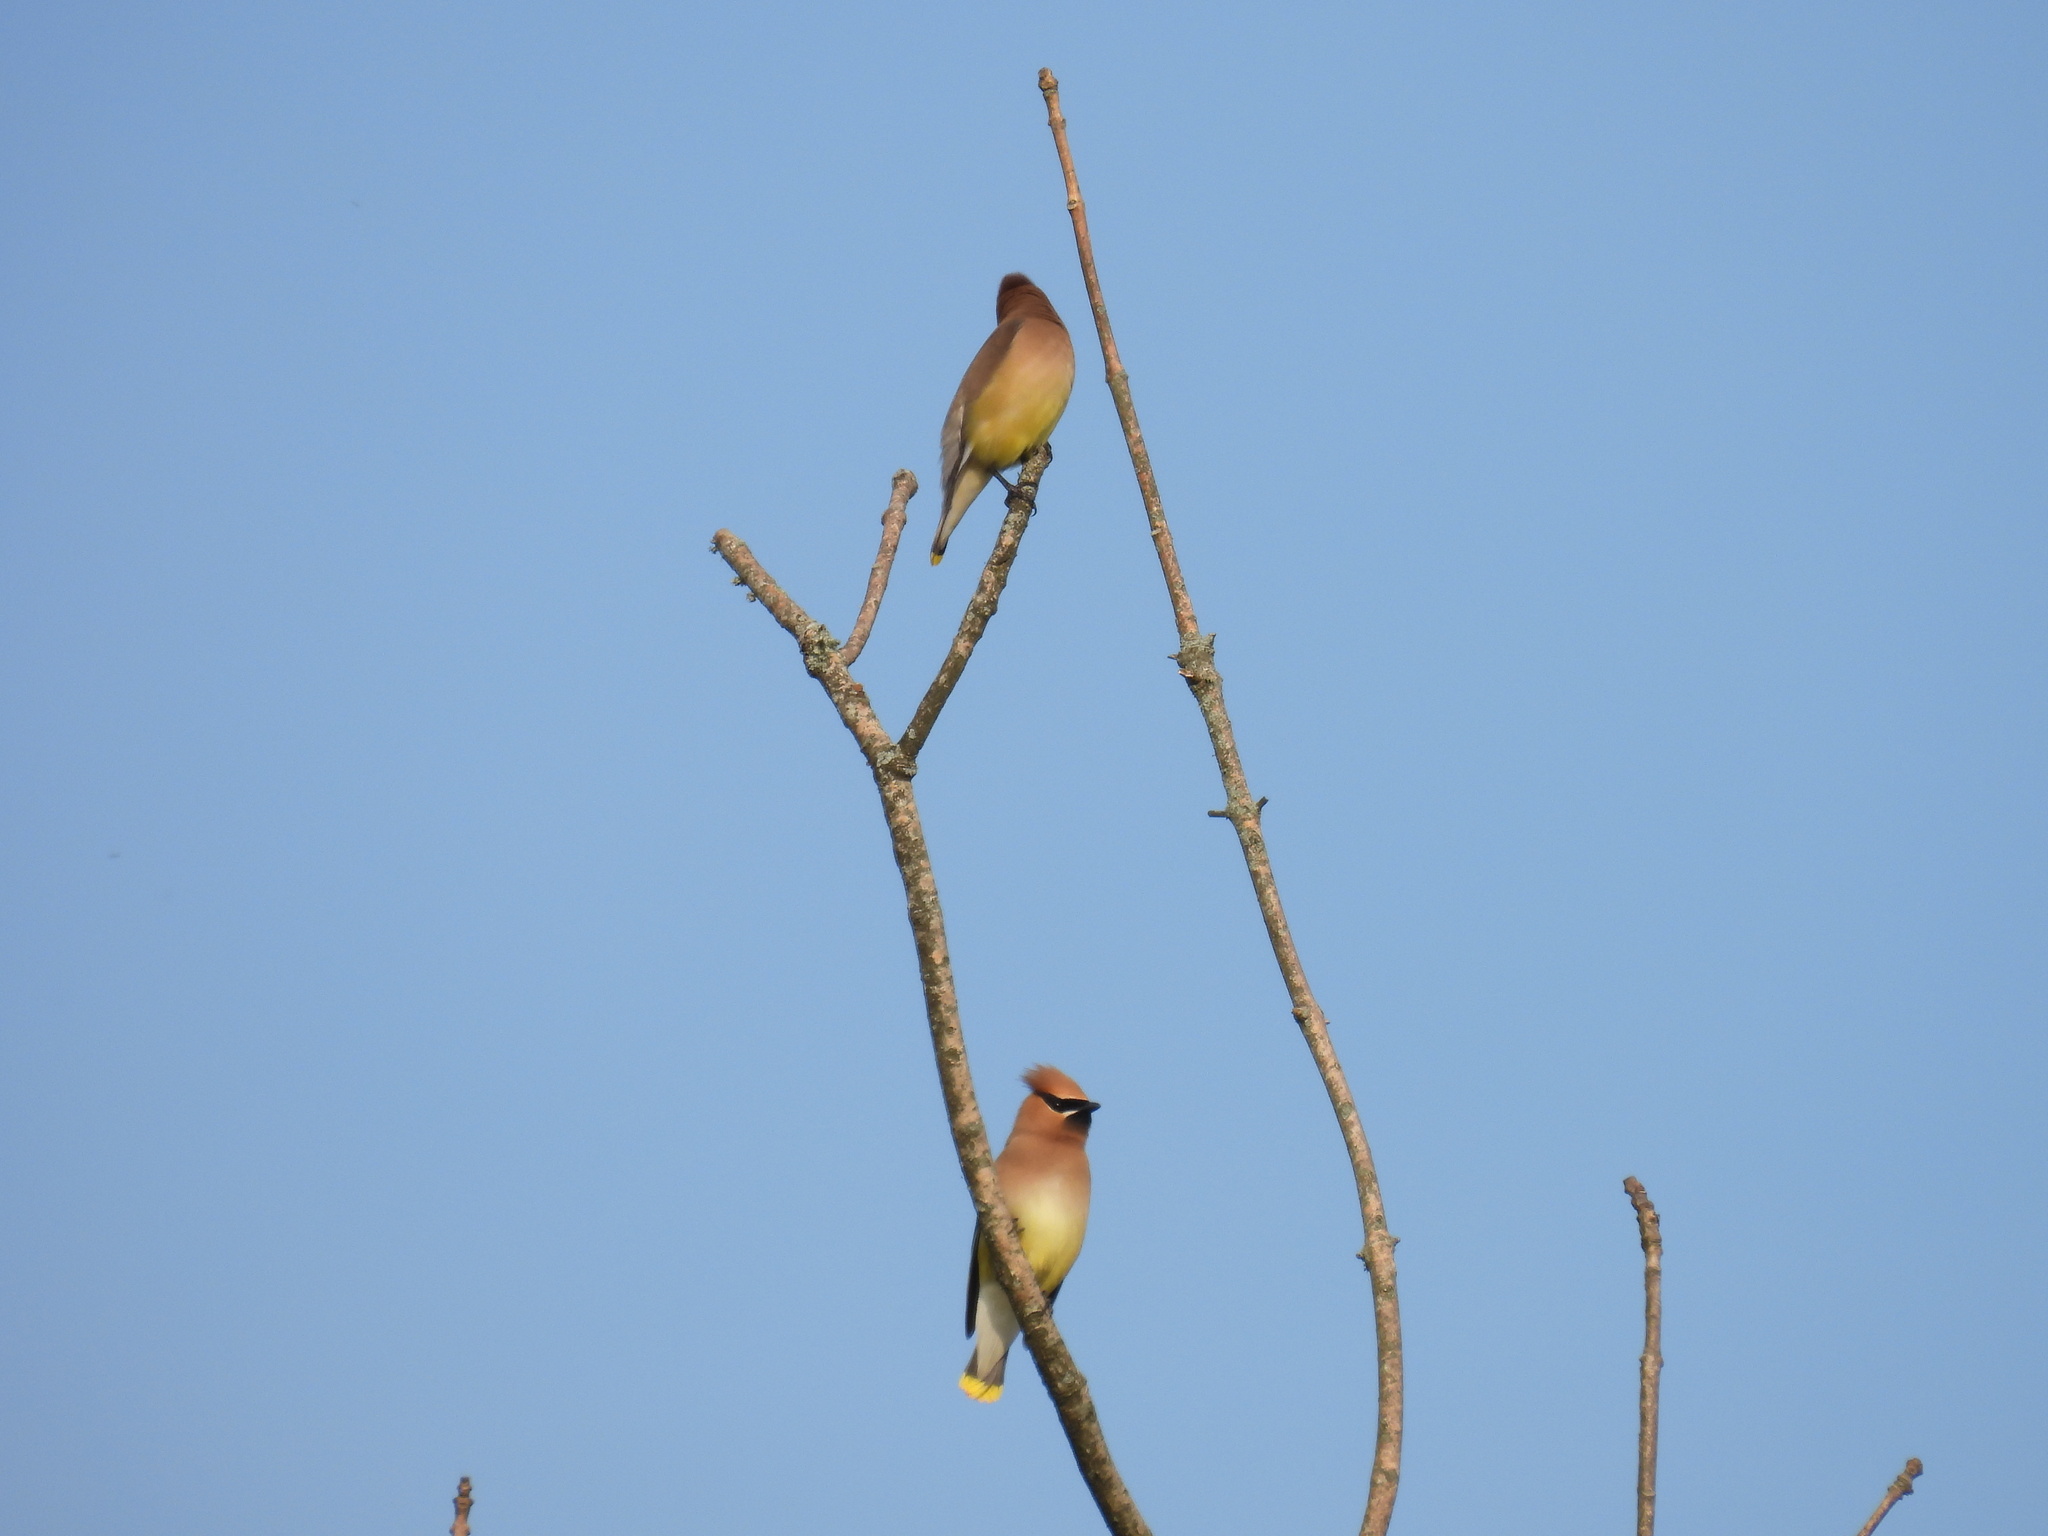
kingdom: Animalia
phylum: Chordata
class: Aves
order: Passeriformes
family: Bombycillidae
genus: Bombycilla
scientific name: Bombycilla cedrorum
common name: Cedar waxwing
